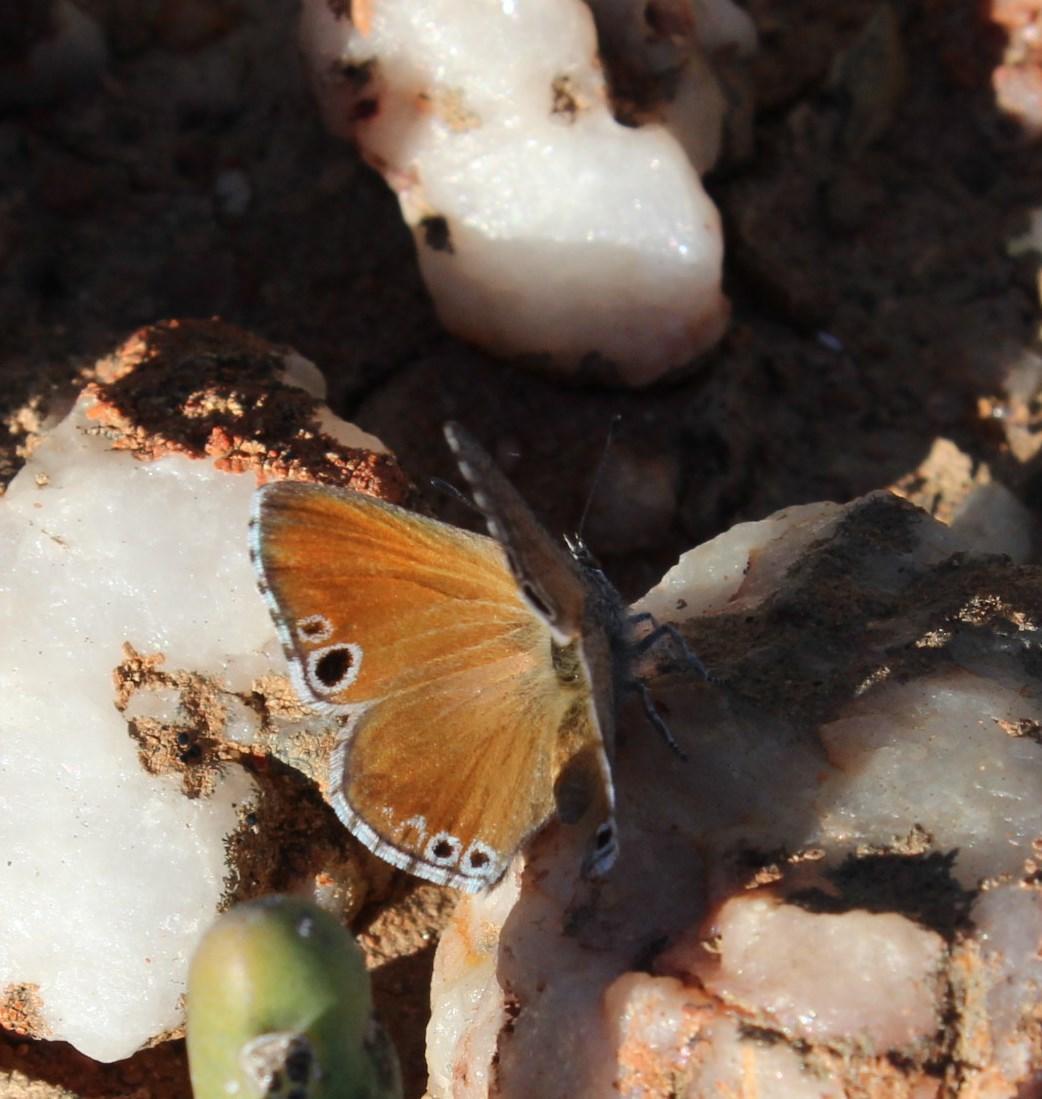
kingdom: Animalia
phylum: Arthropoda
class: Insecta
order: Lepidoptera
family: Lycaenidae
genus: Leptomyrina
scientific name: Leptomyrina lara
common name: Cape black-eye
